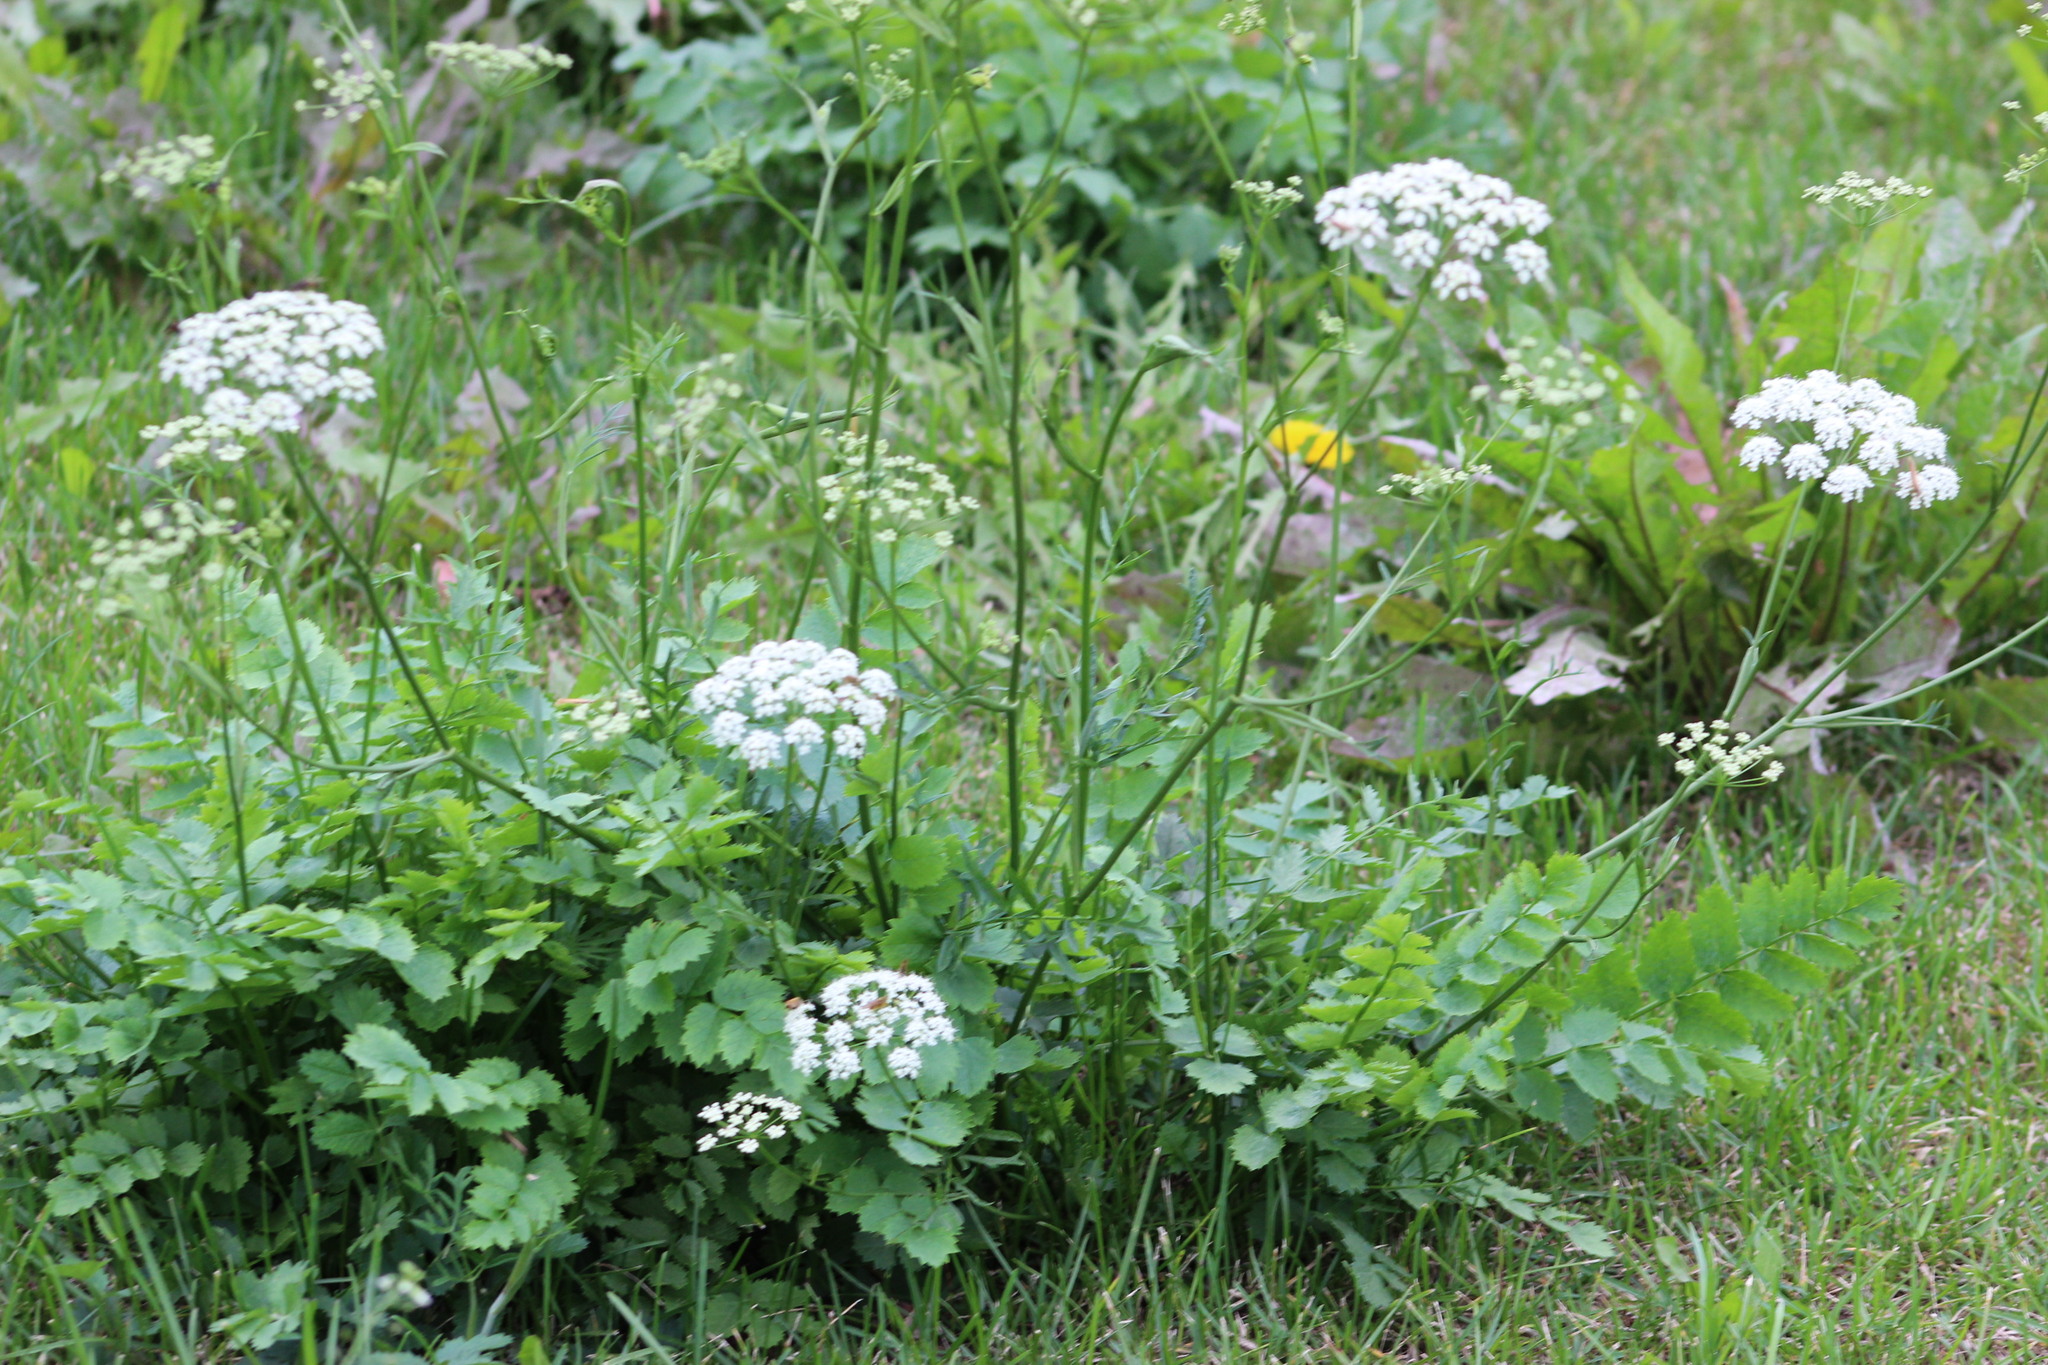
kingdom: Plantae
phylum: Tracheophyta
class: Magnoliopsida
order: Apiales
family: Apiaceae
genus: Pimpinella
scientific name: Pimpinella saxifraga
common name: Burnet-saxifrage
